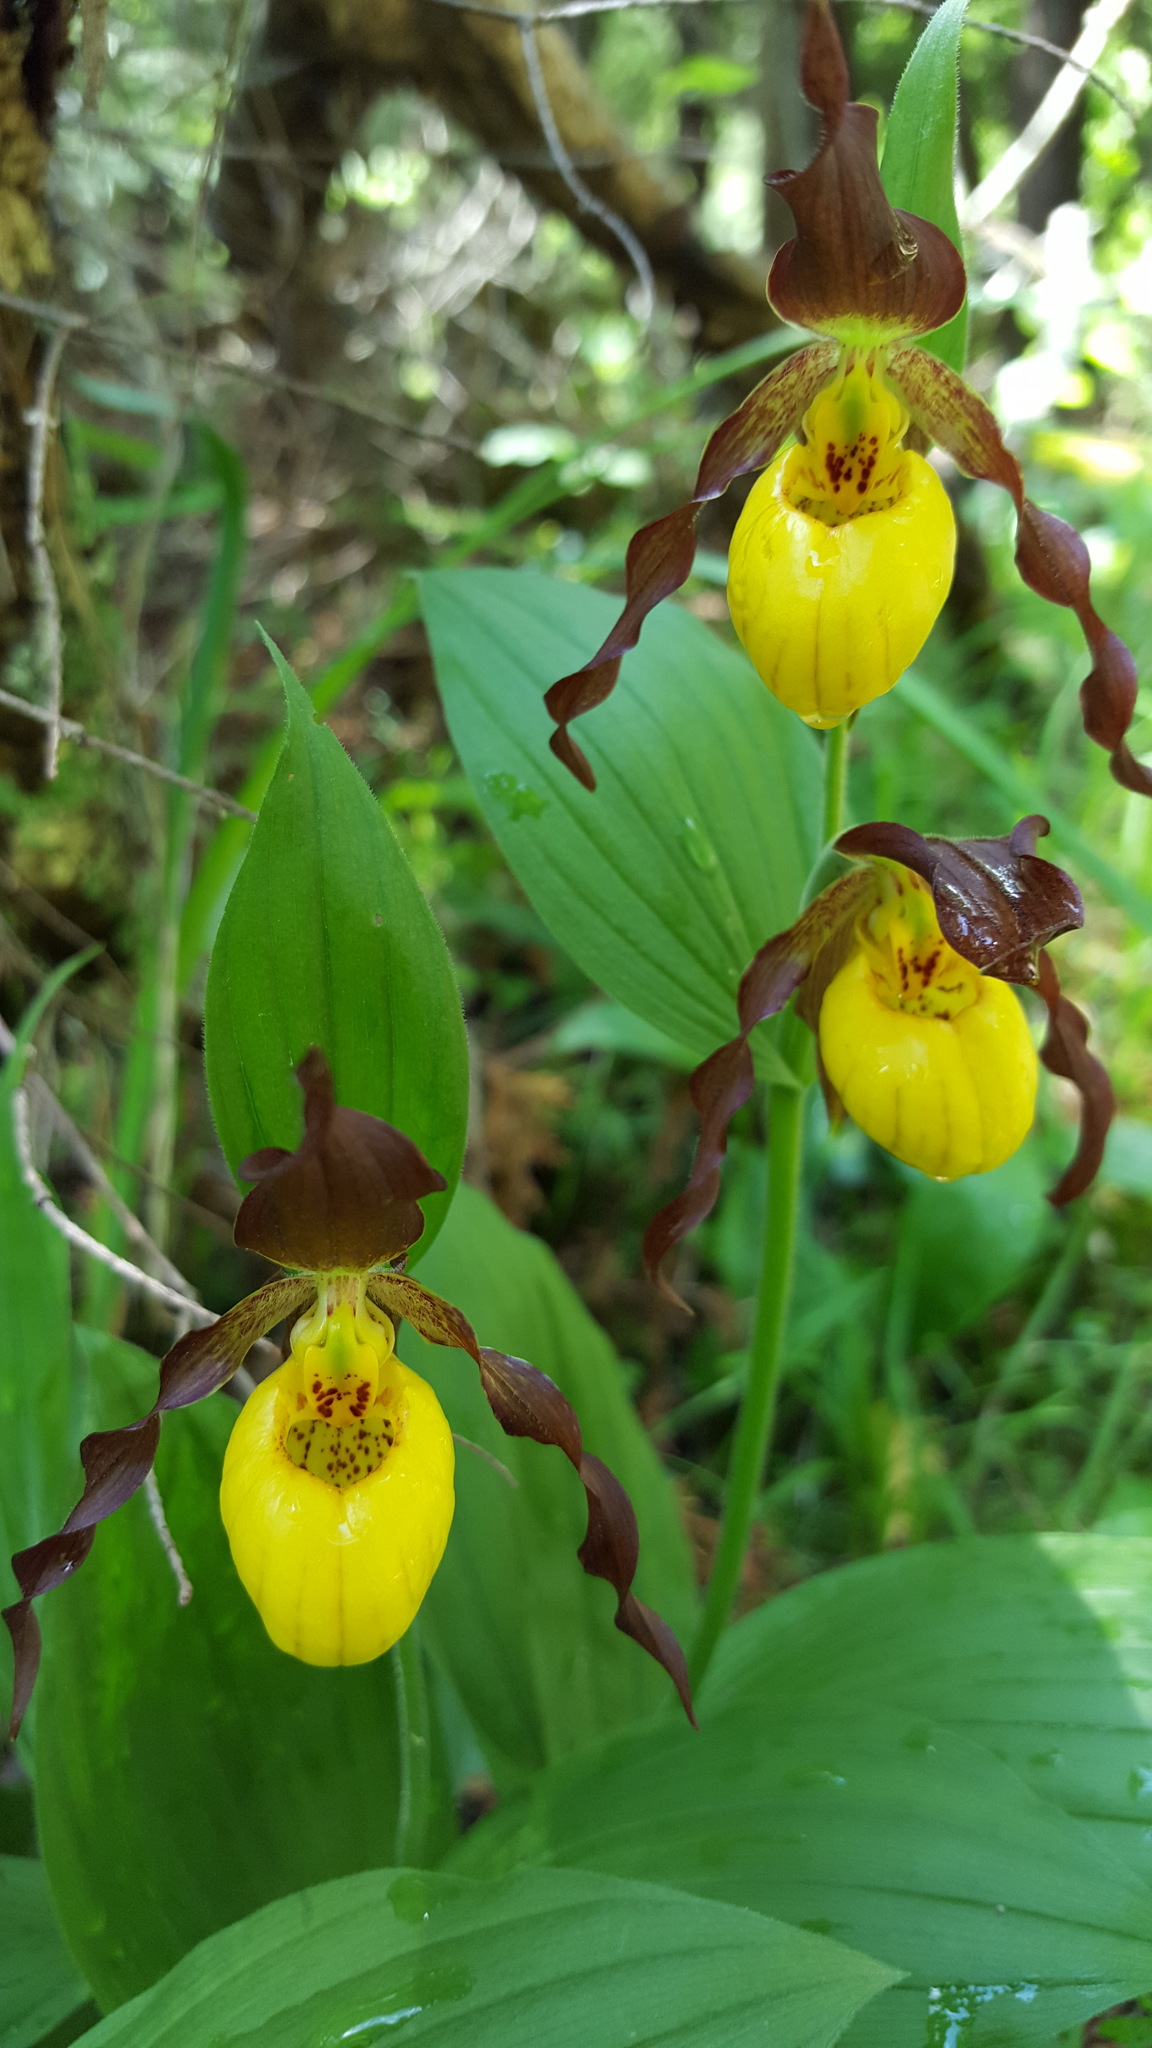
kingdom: Plantae
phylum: Tracheophyta
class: Liliopsida
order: Asparagales
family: Orchidaceae
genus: Cypripedium
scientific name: Cypripedium parviflorum
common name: American yellow lady's-slipper
